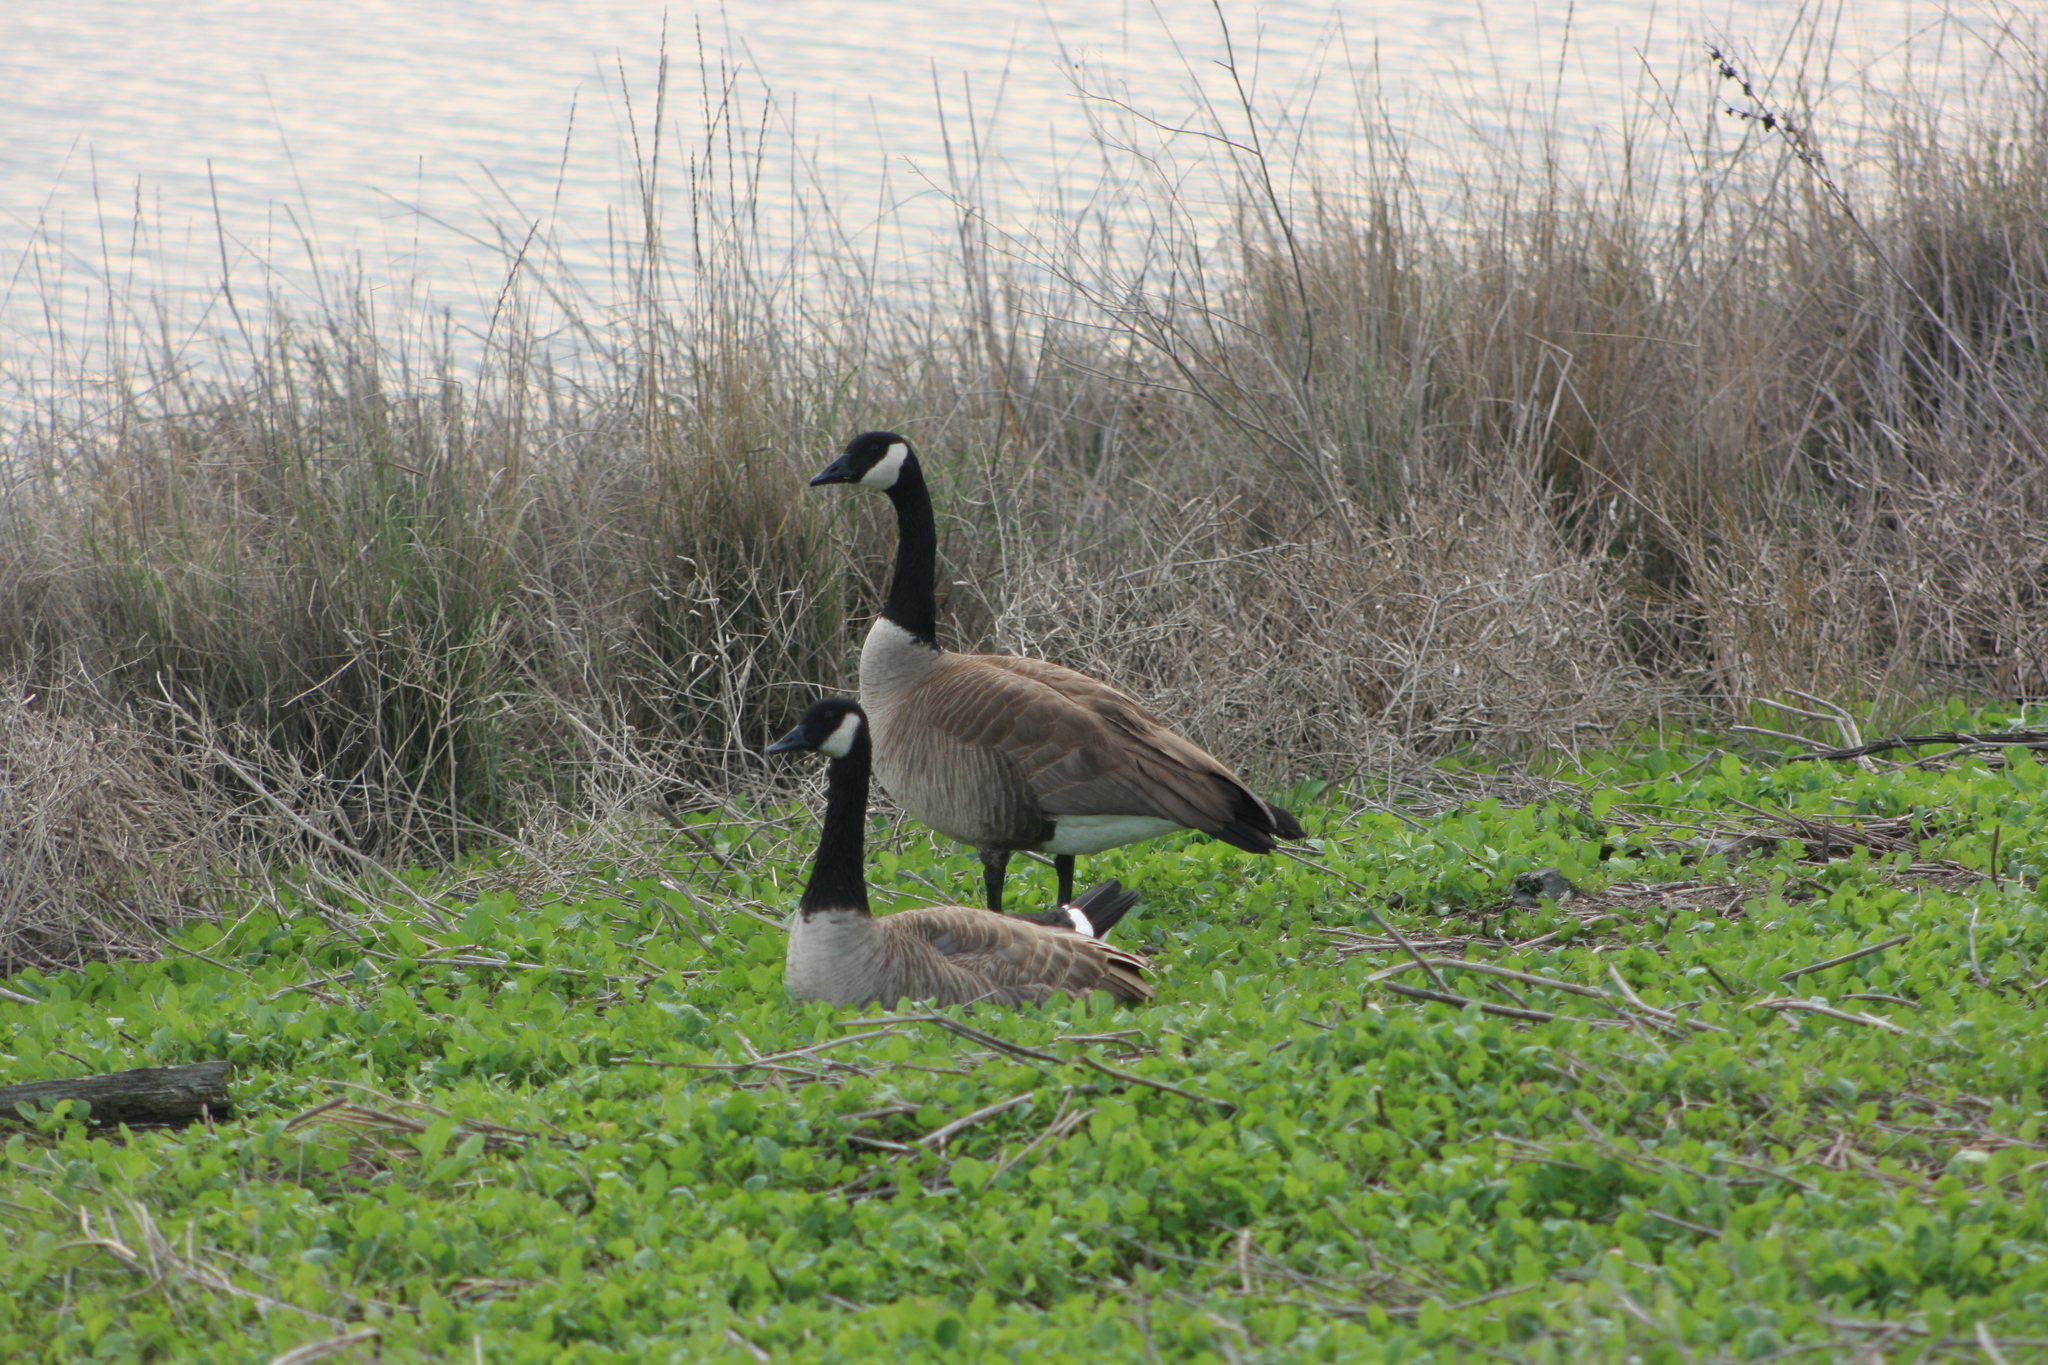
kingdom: Animalia
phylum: Chordata
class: Aves
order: Anseriformes
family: Anatidae
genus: Branta
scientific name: Branta canadensis
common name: Canada goose
